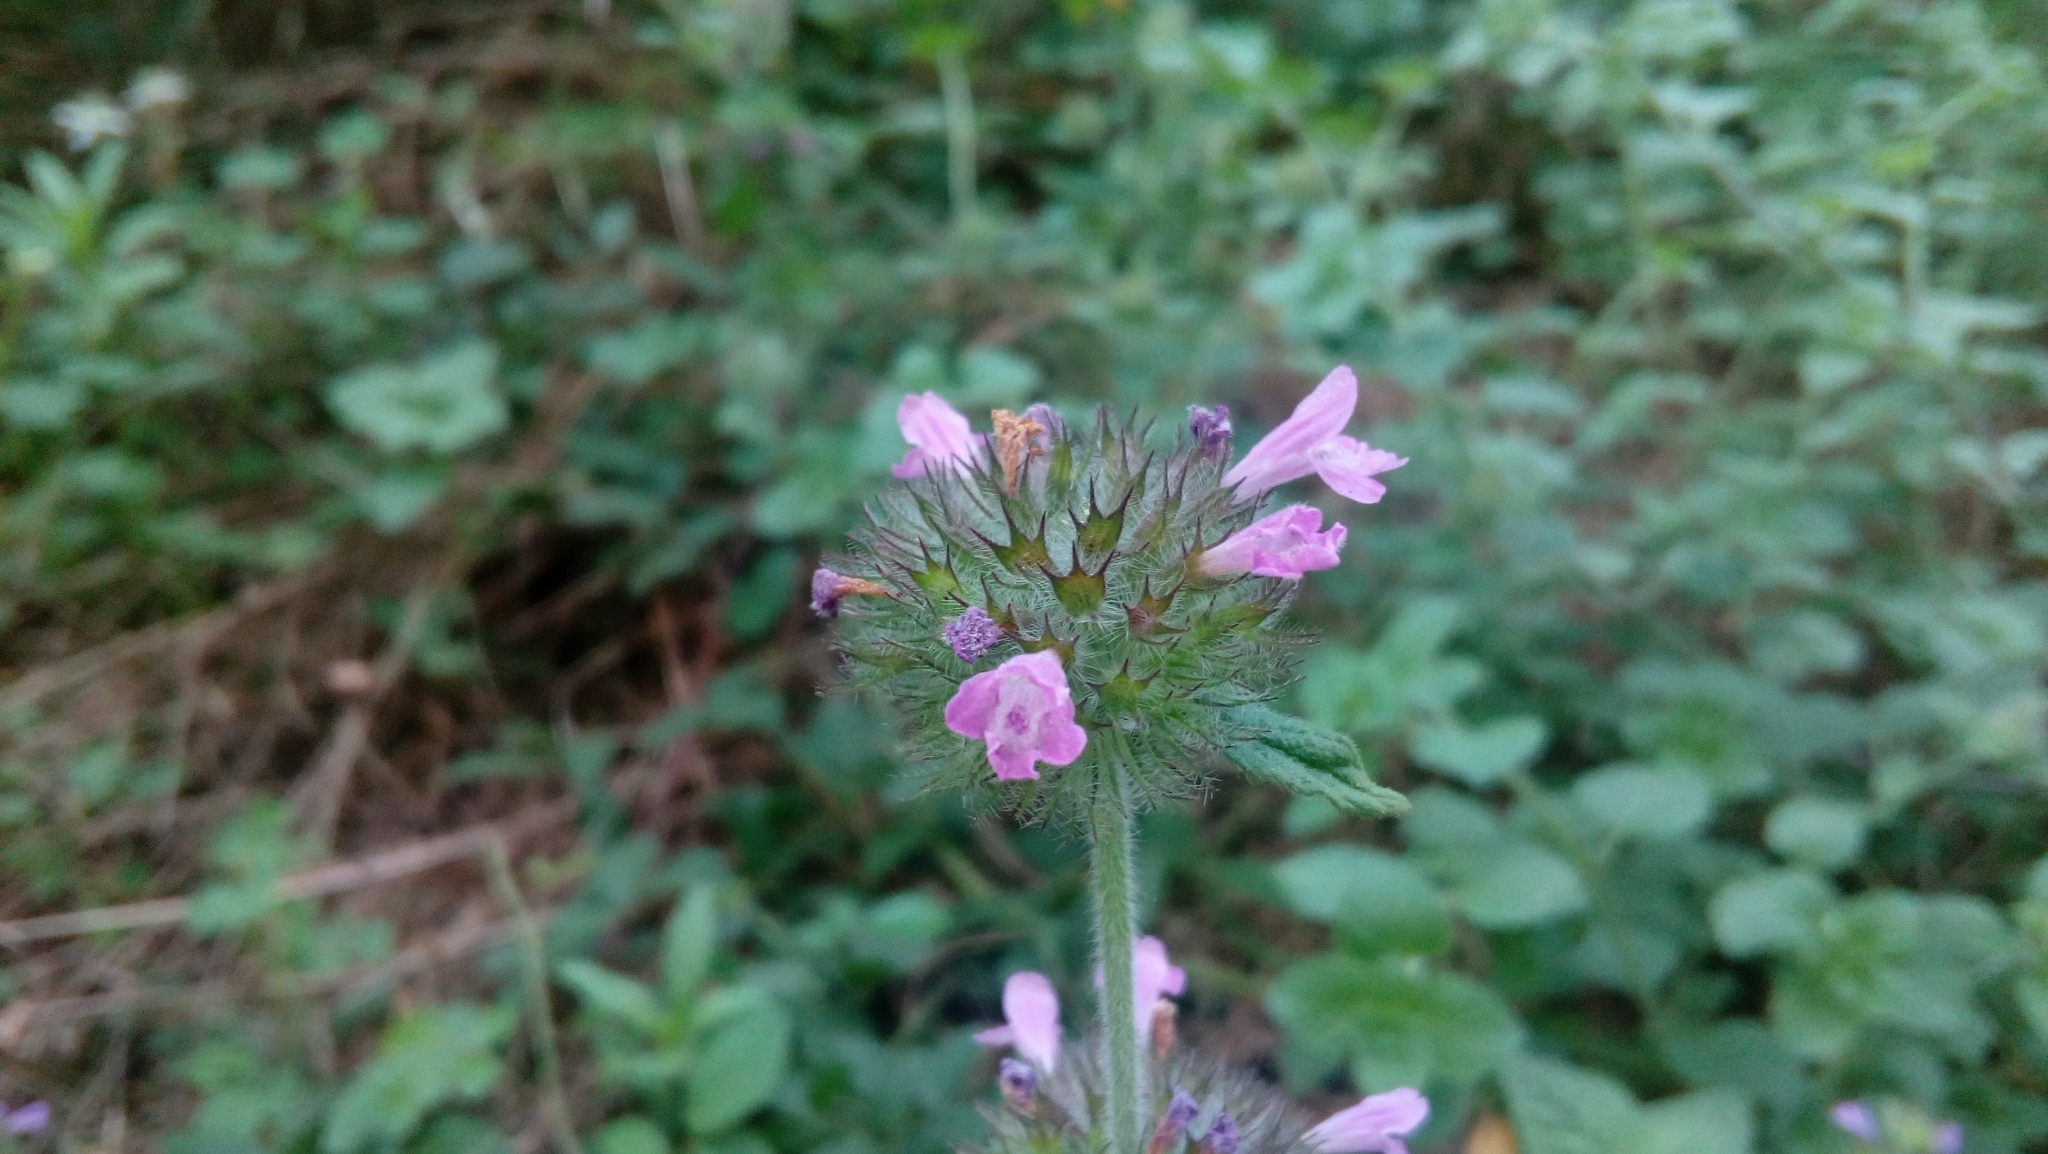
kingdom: Plantae
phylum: Tracheophyta
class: Magnoliopsida
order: Lamiales
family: Lamiaceae
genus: Clinopodium
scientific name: Clinopodium vulgare
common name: Wild basil
